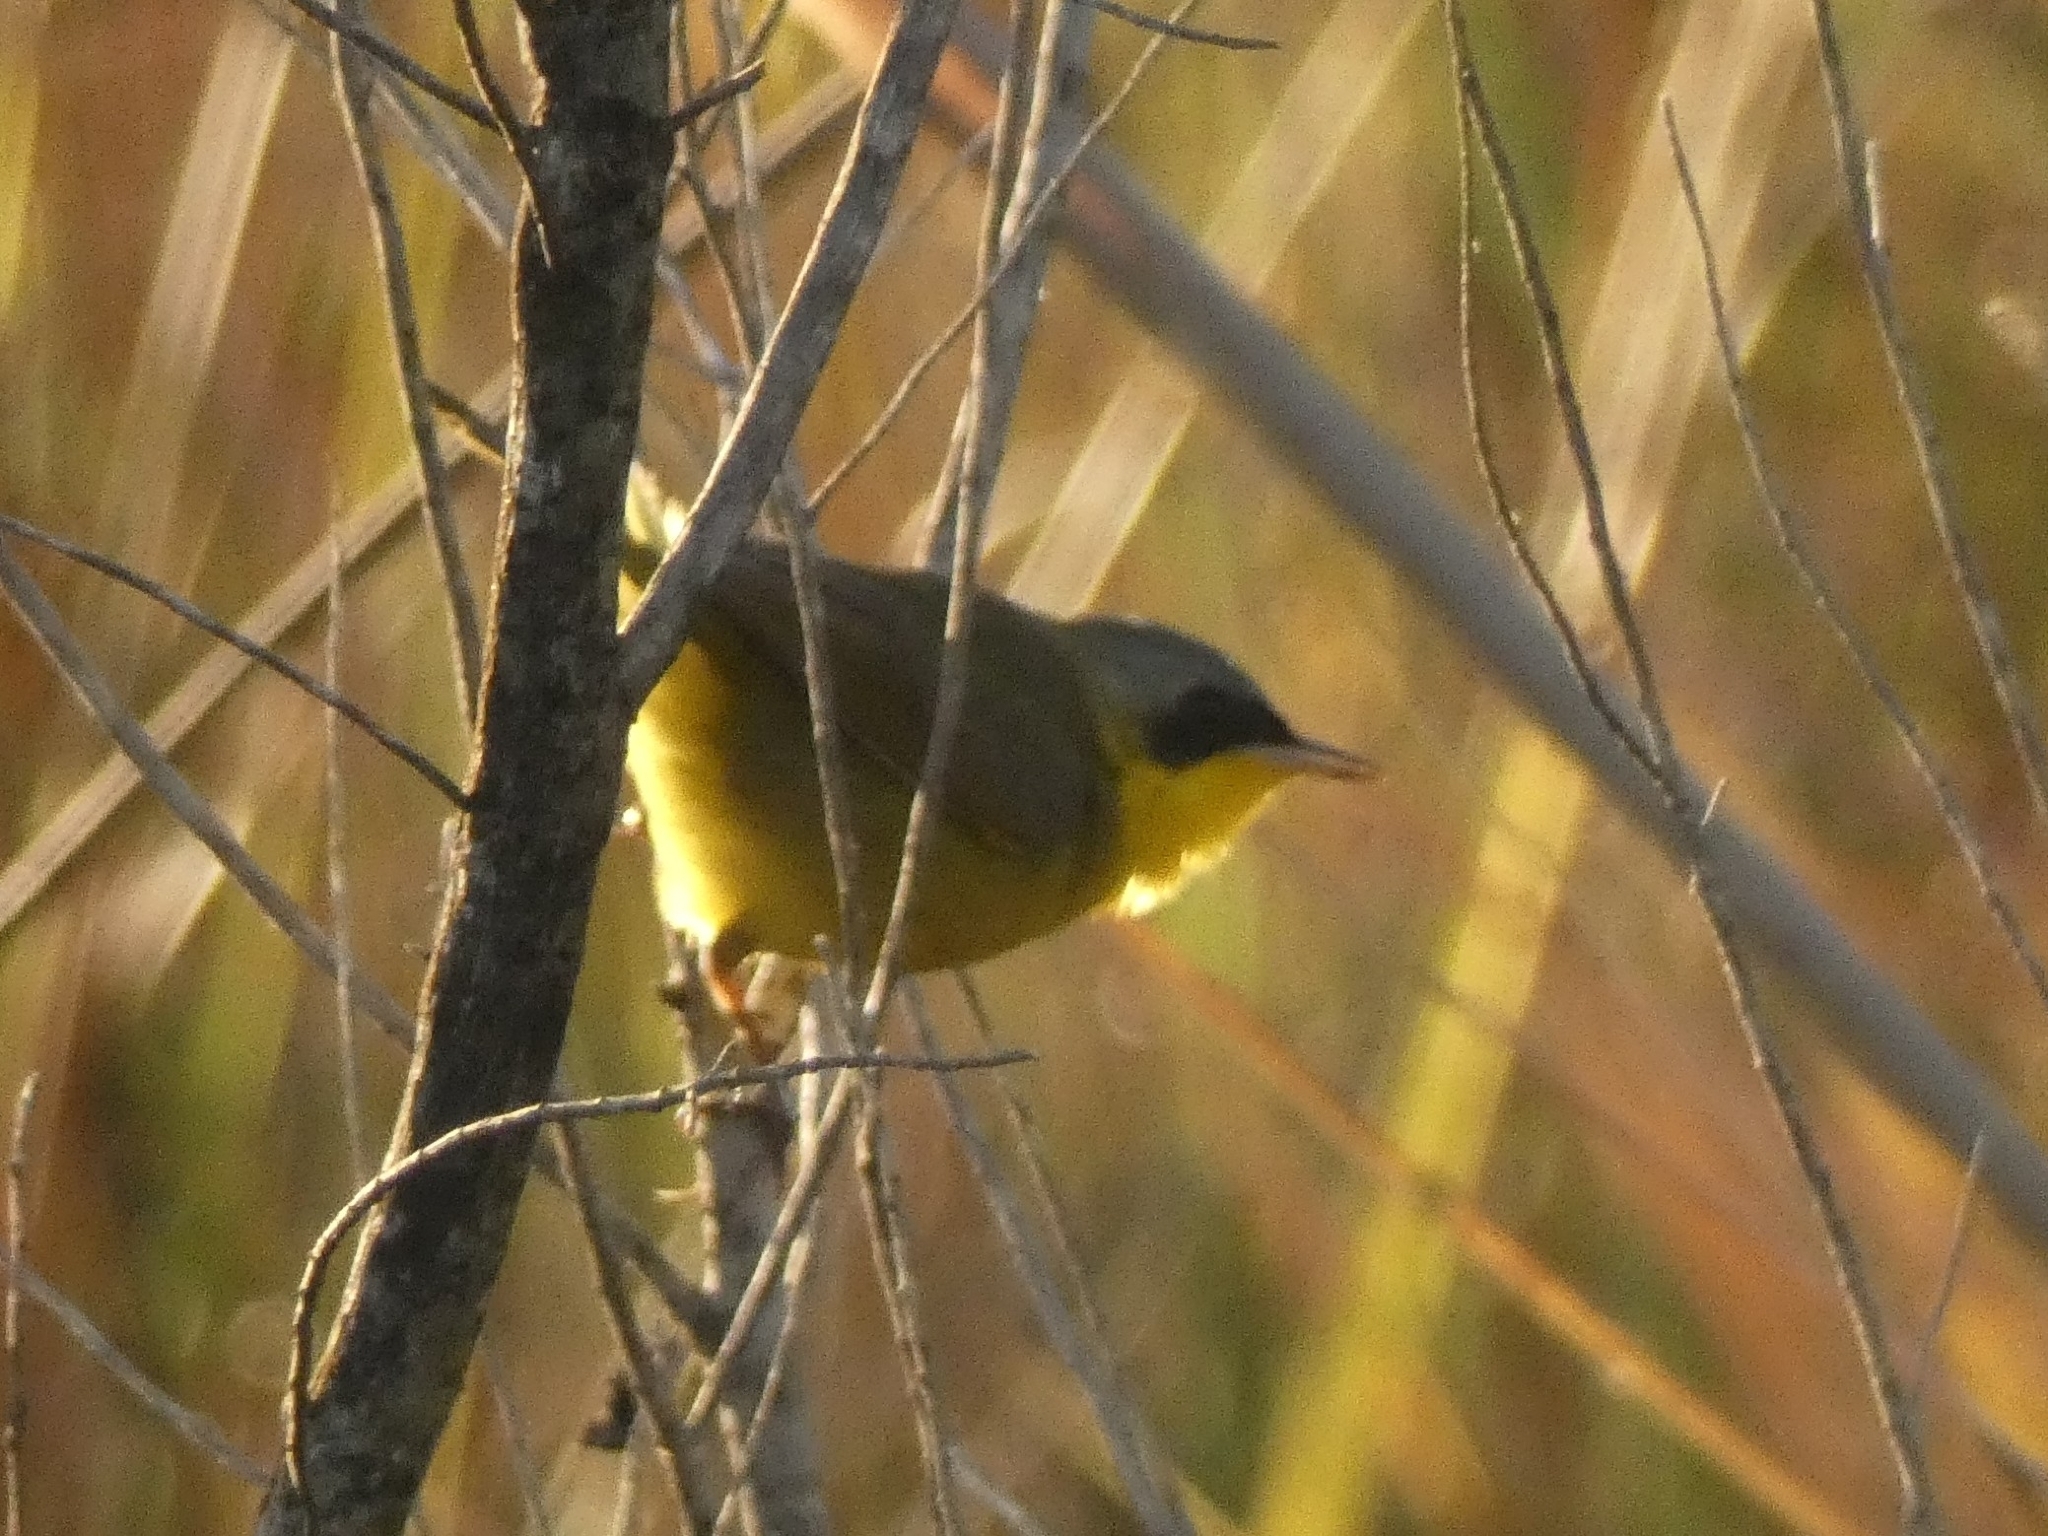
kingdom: Animalia
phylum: Chordata
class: Aves
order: Passeriformes
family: Parulidae
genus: Geothlypis
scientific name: Geothlypis velata
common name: Southern yellowthroat
